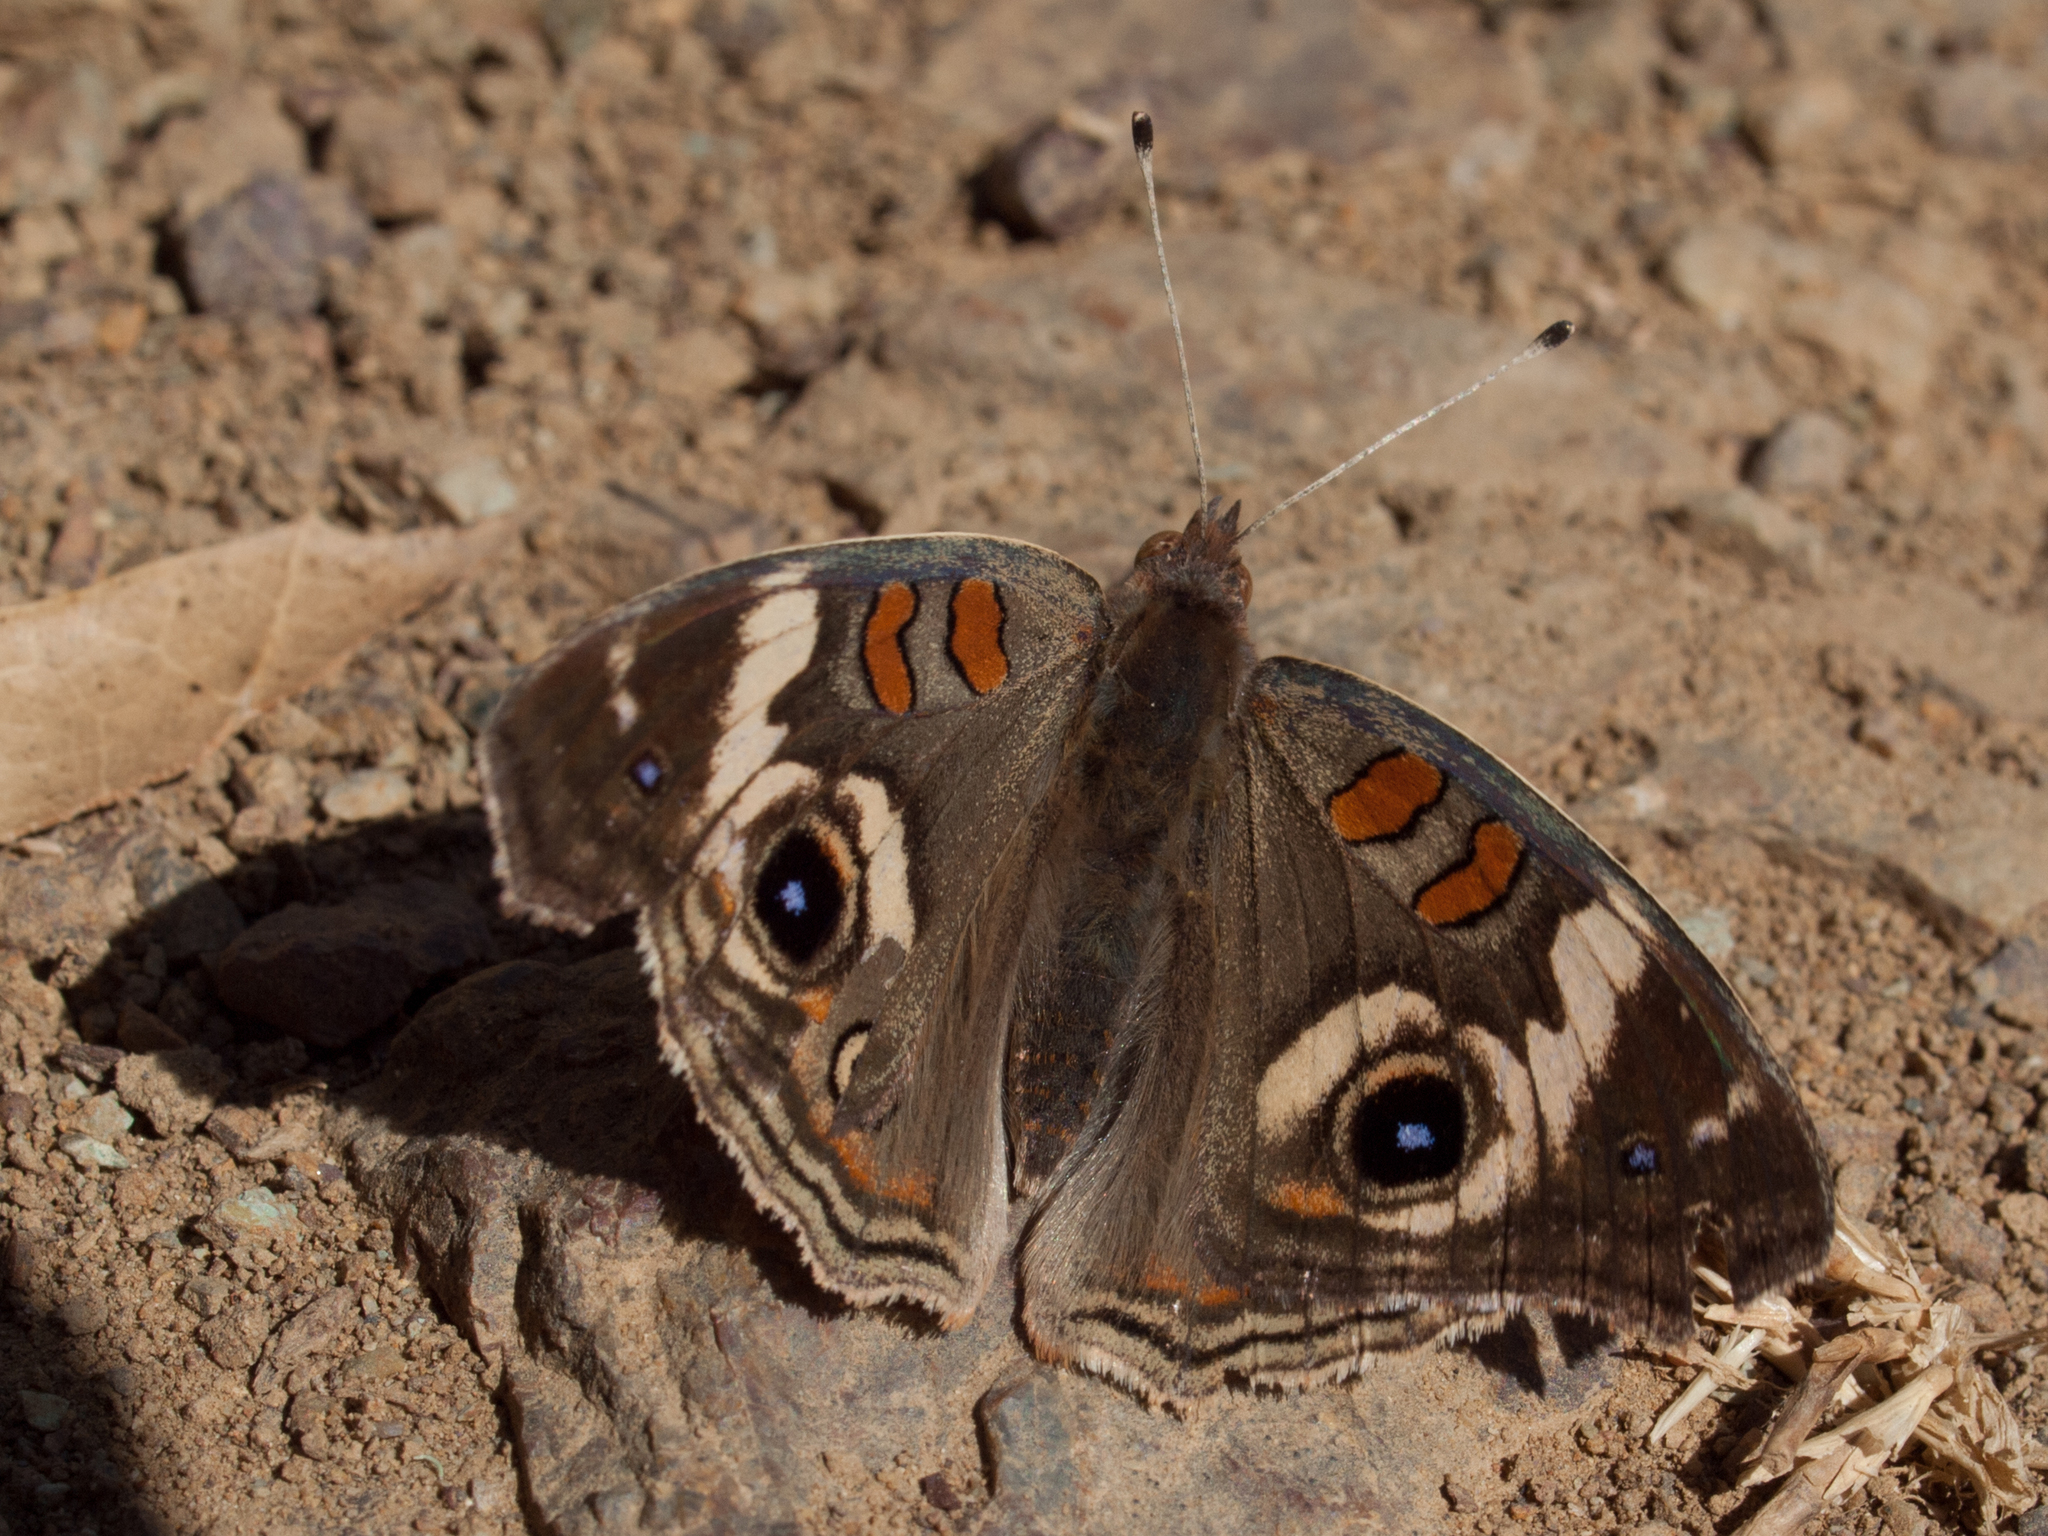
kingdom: Animalia
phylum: Arthropoda
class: Insecta
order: Lepidoptera
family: Nymphalidae
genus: Junonia
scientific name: Junonia grisea
